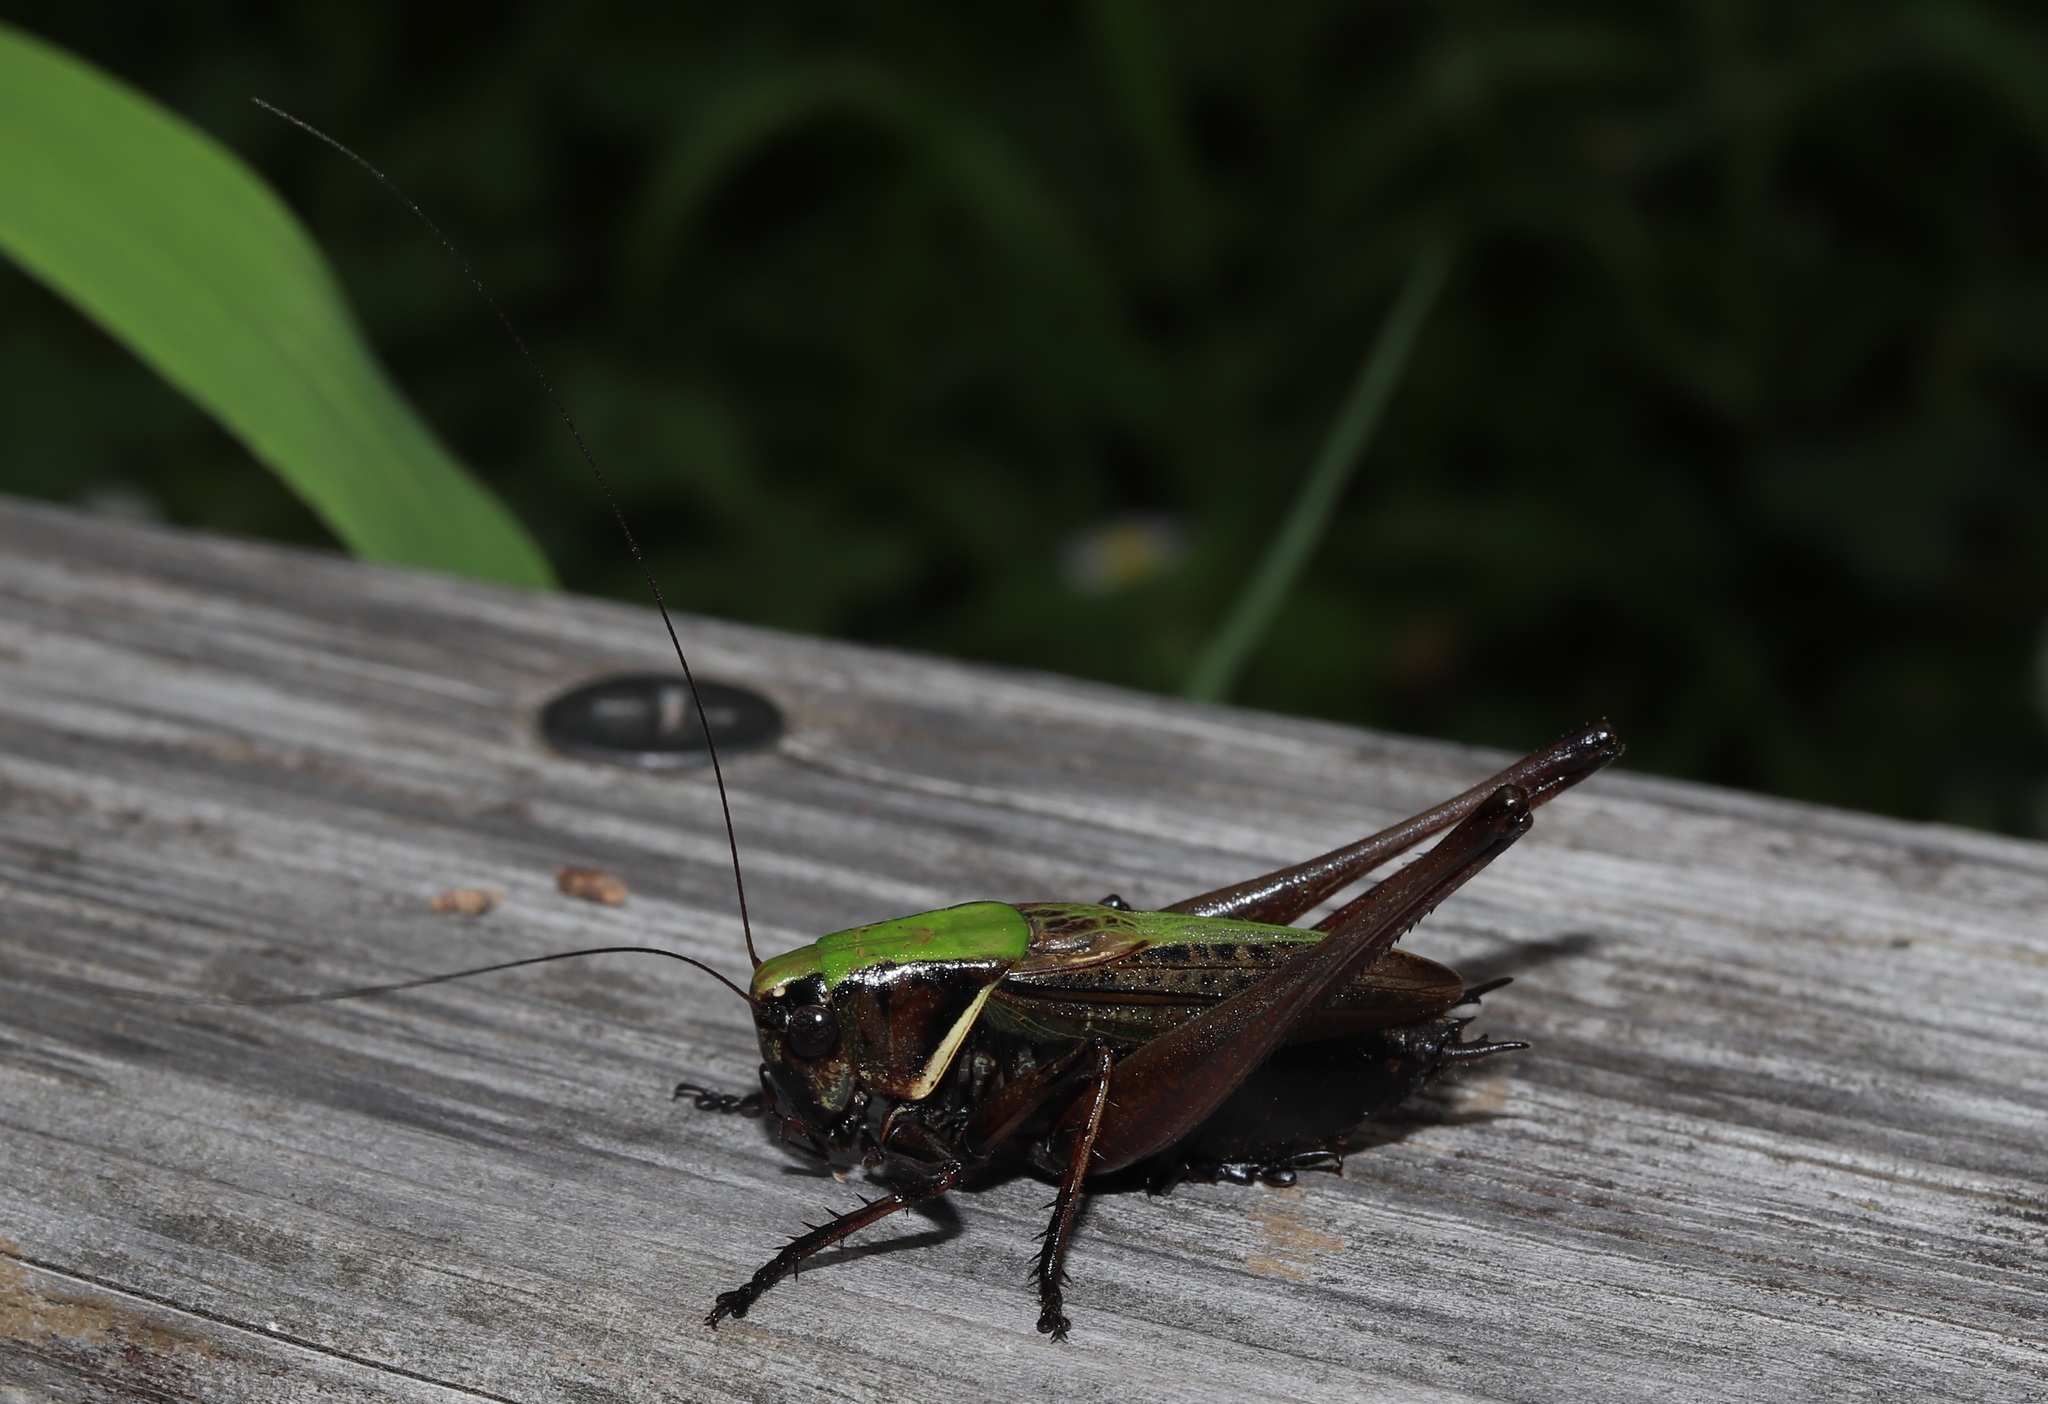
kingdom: Animalia
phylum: Arthropoda
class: Insecta
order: Orthoptera
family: Tettigoniidae
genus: Eobiana
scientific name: Eobiana engelhardti
